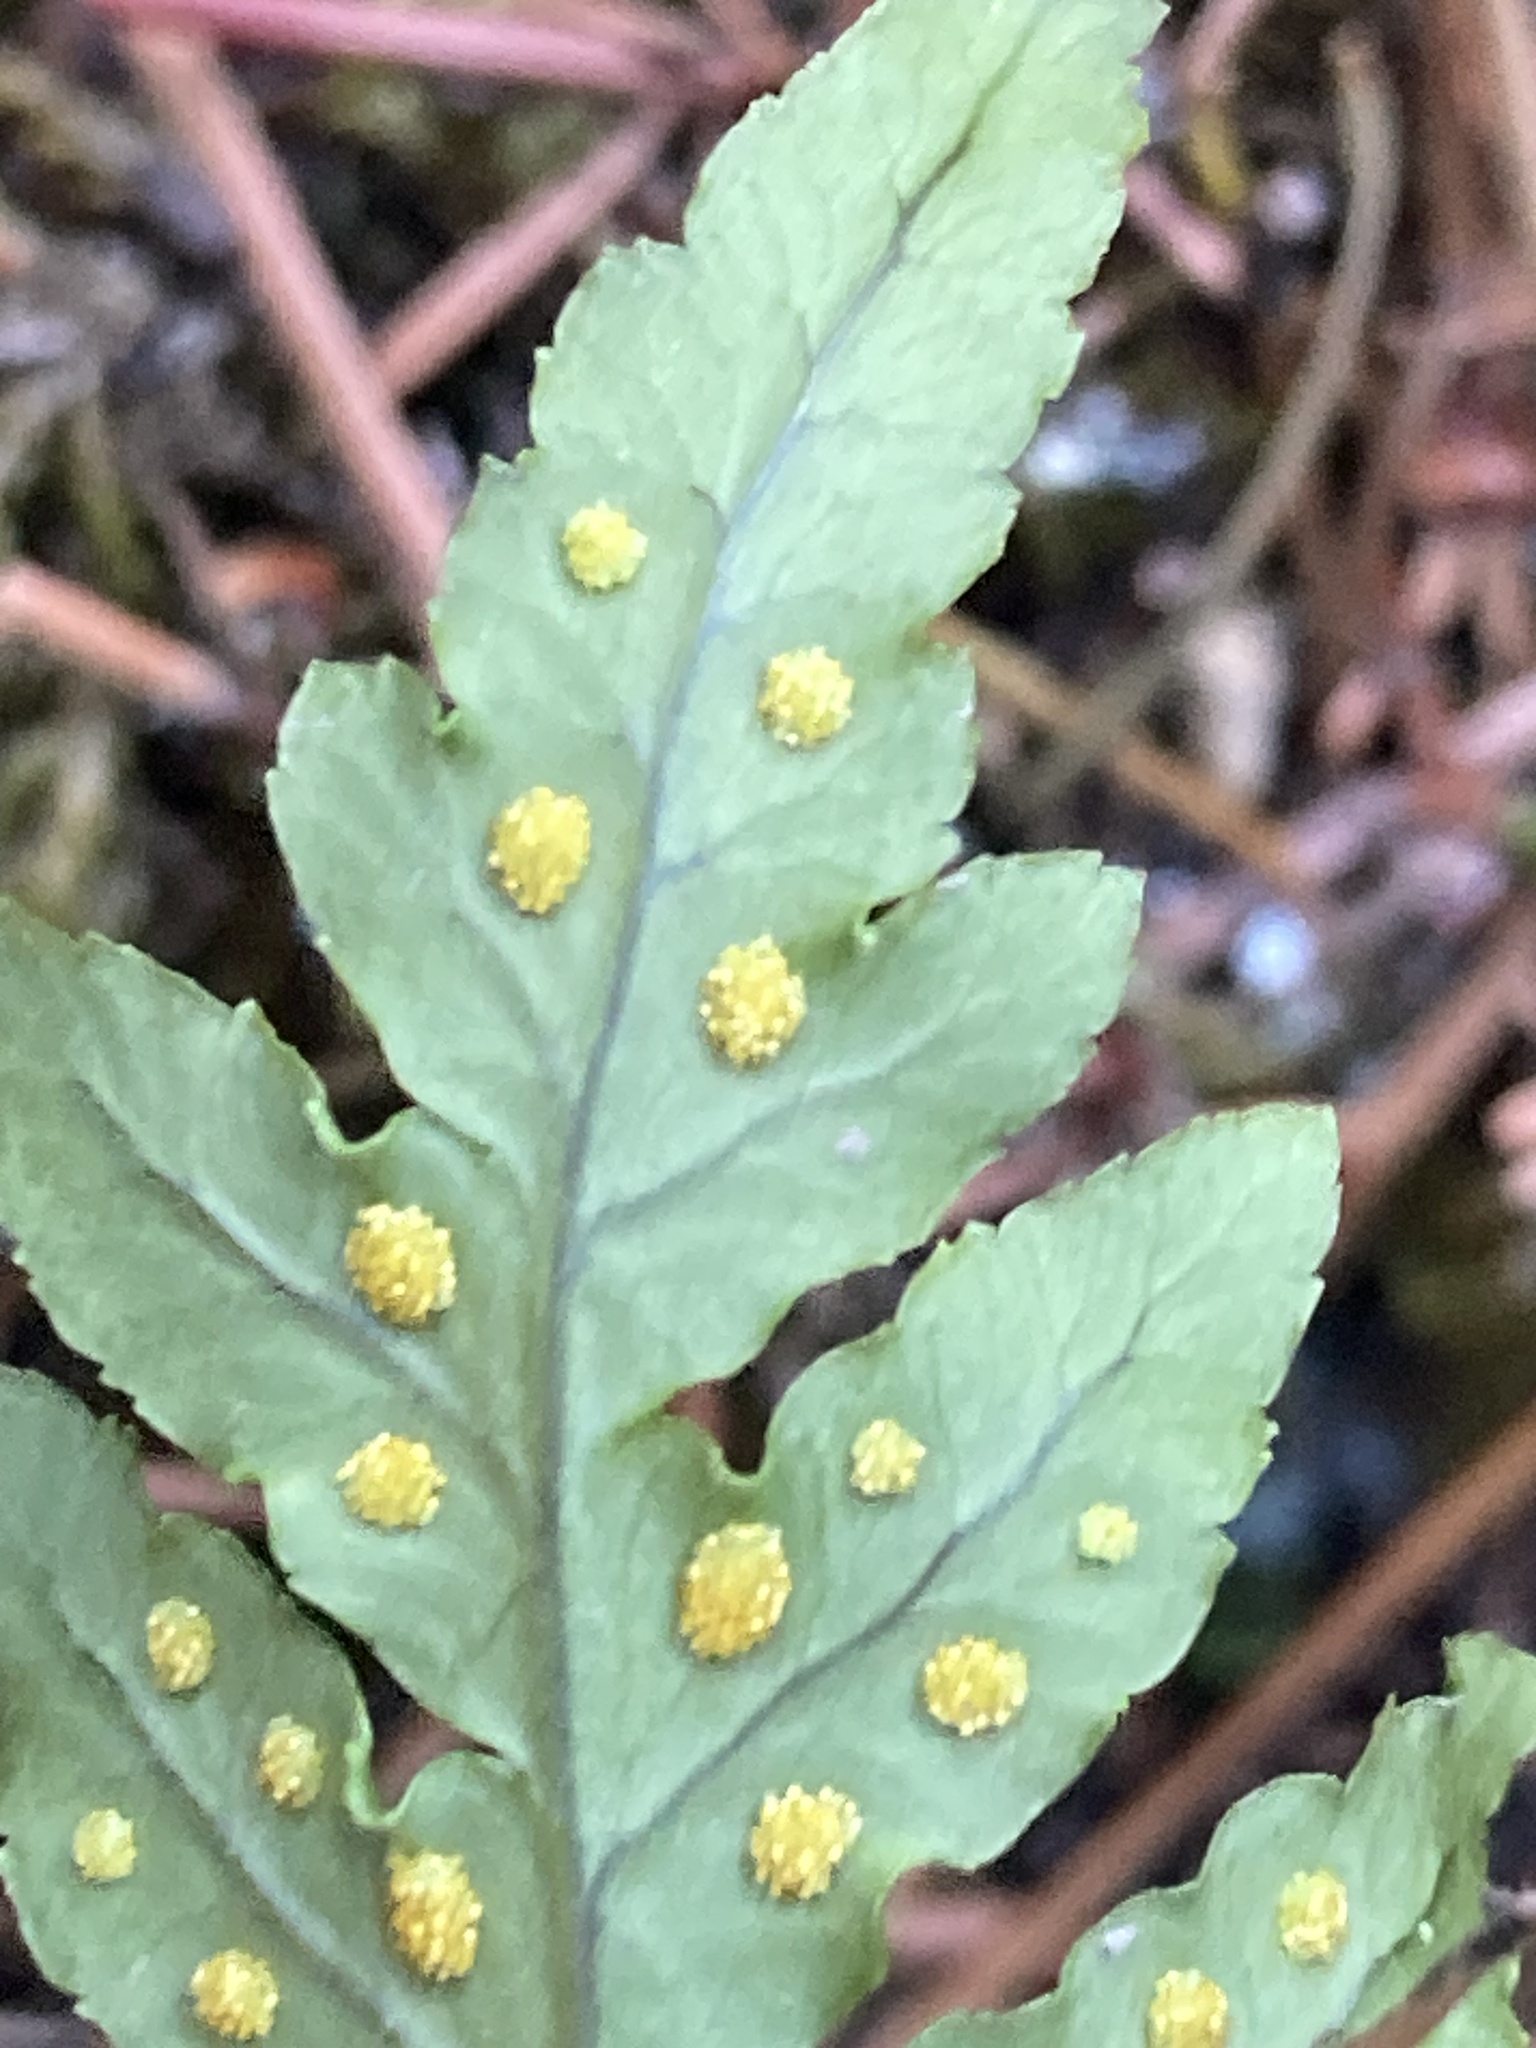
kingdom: Plantae
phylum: Tracheophyta
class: Polypodiopsida
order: Polypodiales
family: Polypodiaceae
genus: Polypodium
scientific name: Polypodium glycyrrhiza
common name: Licorice fern
